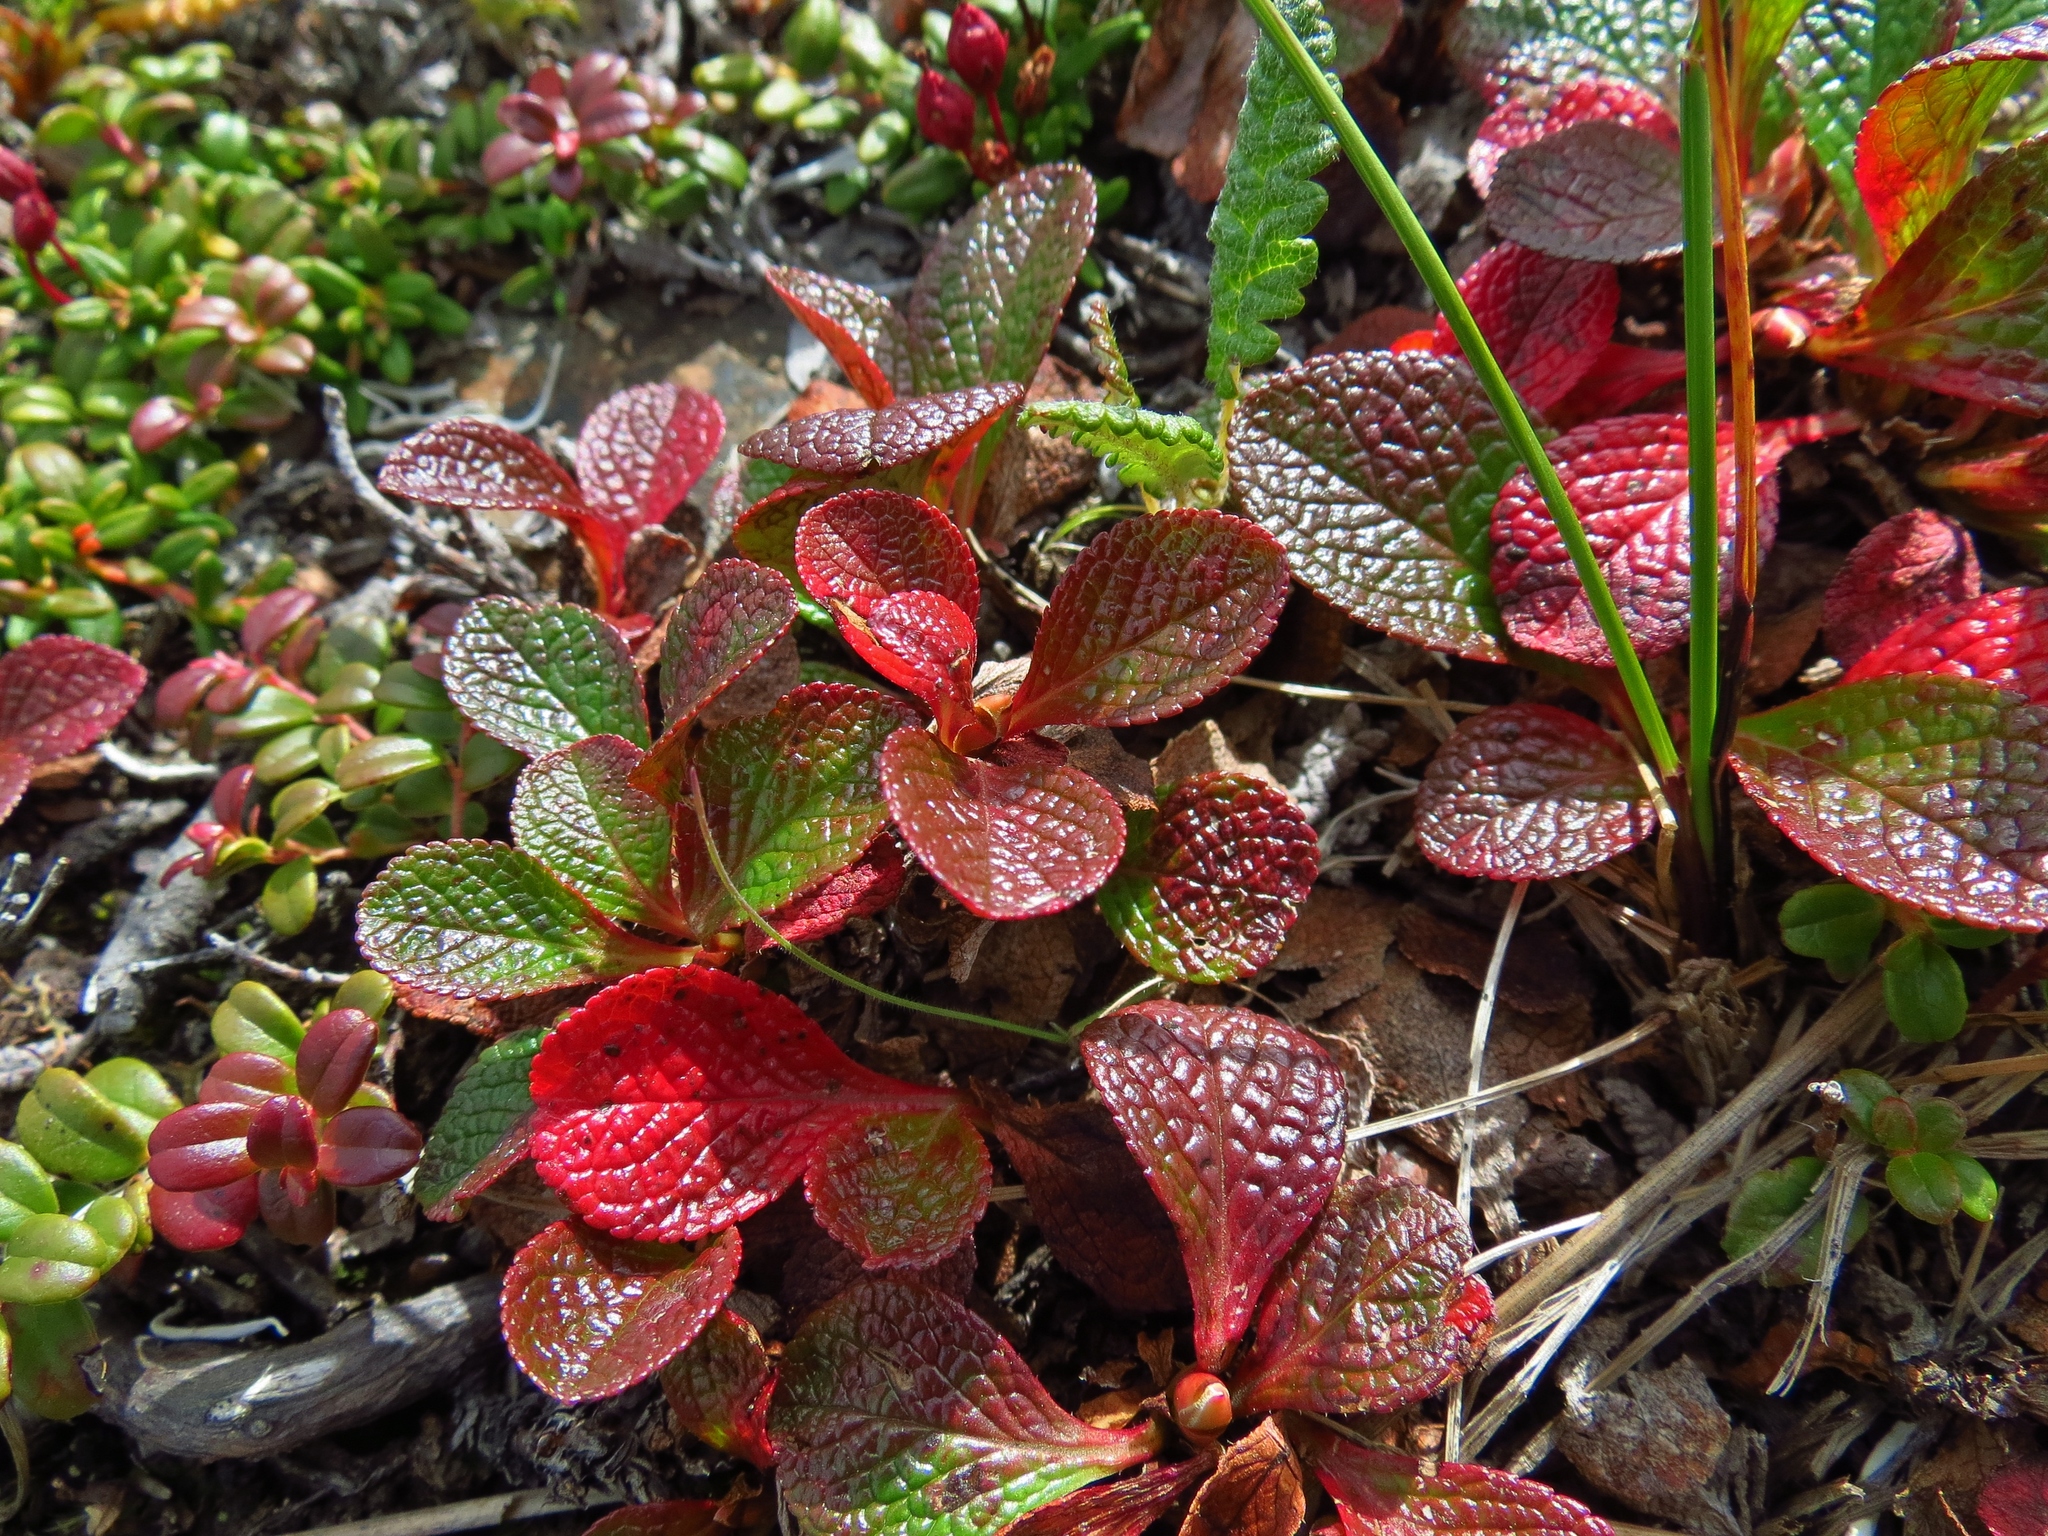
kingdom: Plantae
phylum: Tracheophyta
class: Magnoliopsida
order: Ericales
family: Ericaceae
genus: Arctostaphylos
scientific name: Arctostaphylos rubra
